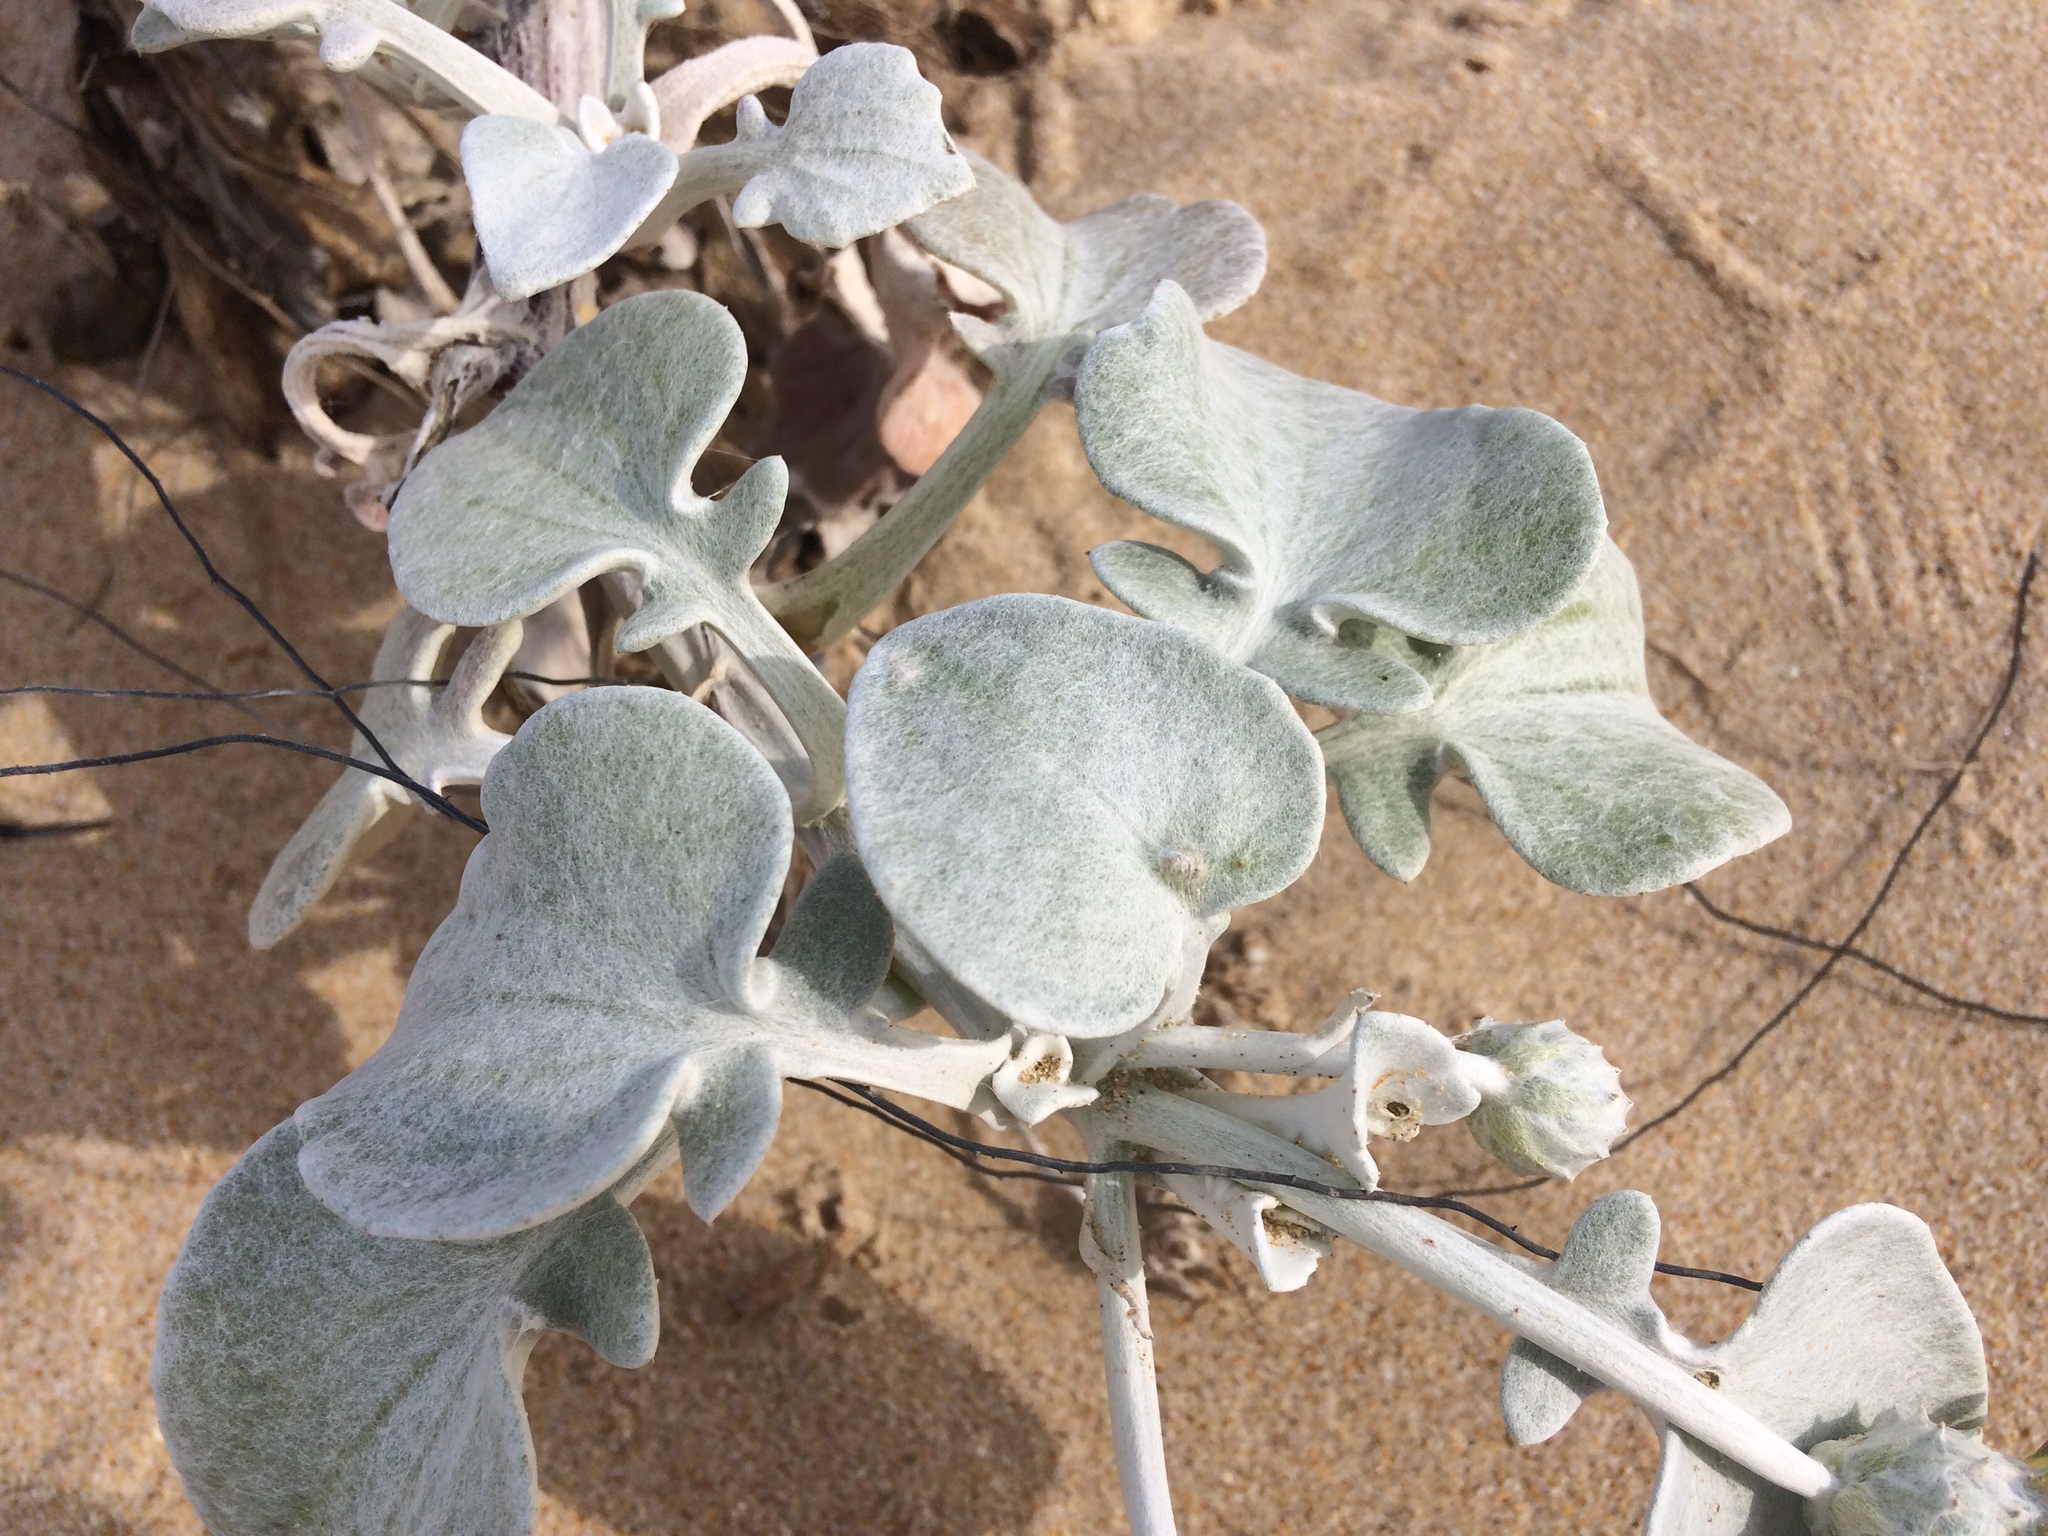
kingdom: Plantae
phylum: Tracheophyta
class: Magnoliopsida
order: Asterales
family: Asteraceae
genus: Arctotheca
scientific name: Arctotheca populifolia
